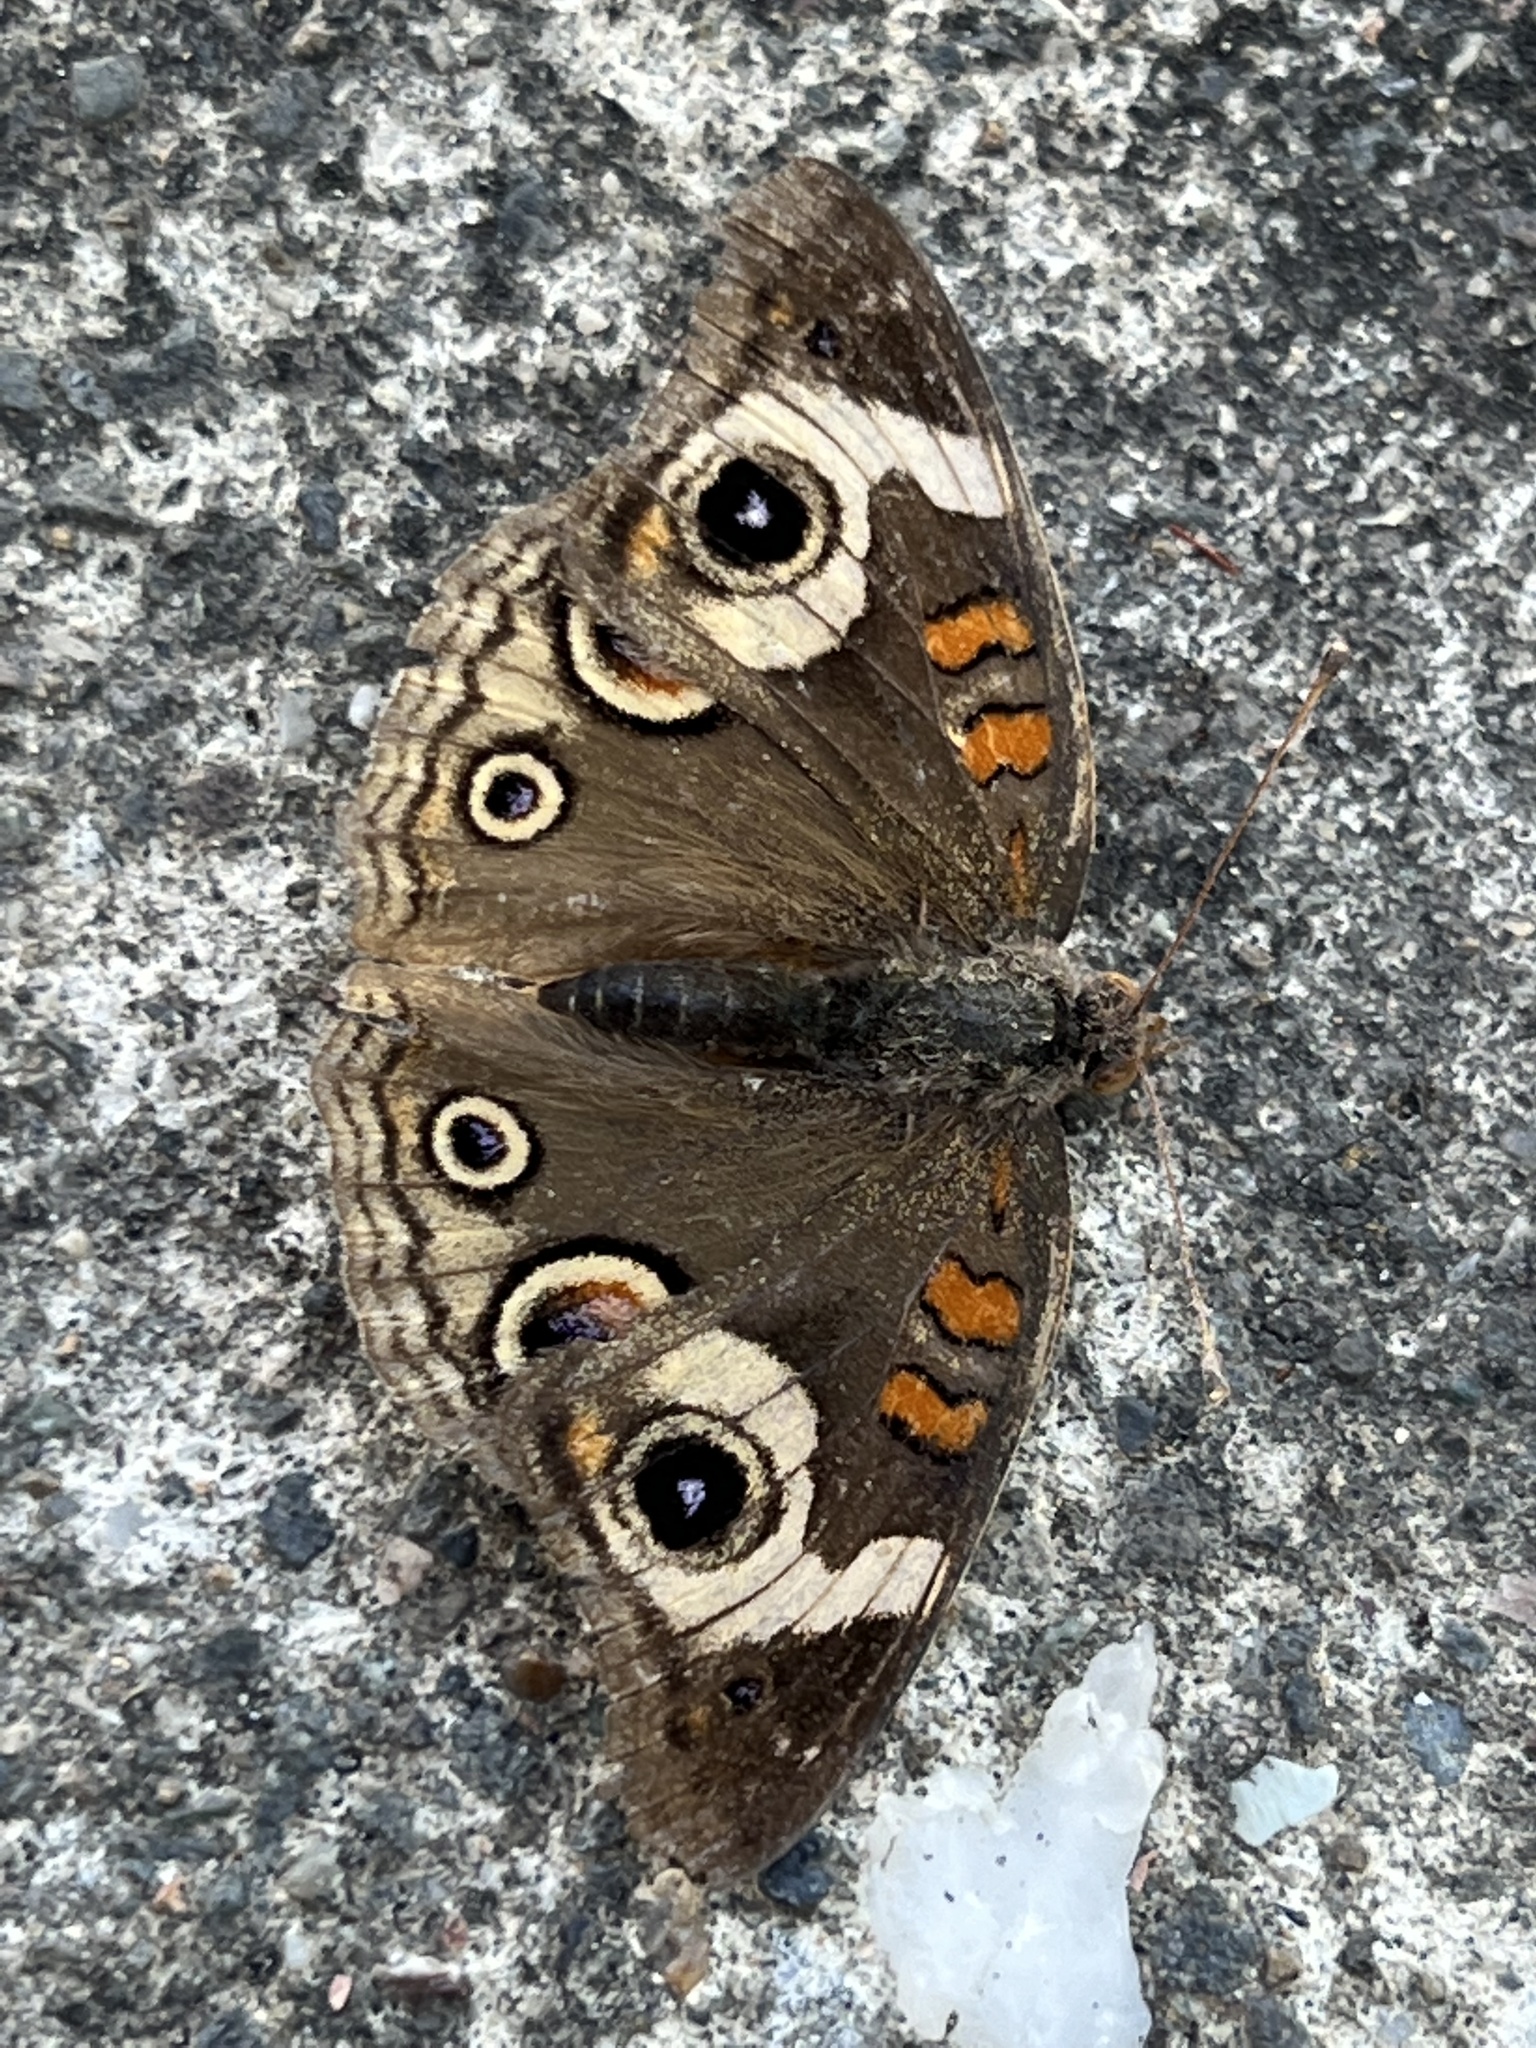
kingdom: Animalia
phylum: Arthropoda
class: Insecta
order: Lepidoptera
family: Nymphalidae
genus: Junonia
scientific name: Junonia grisea
